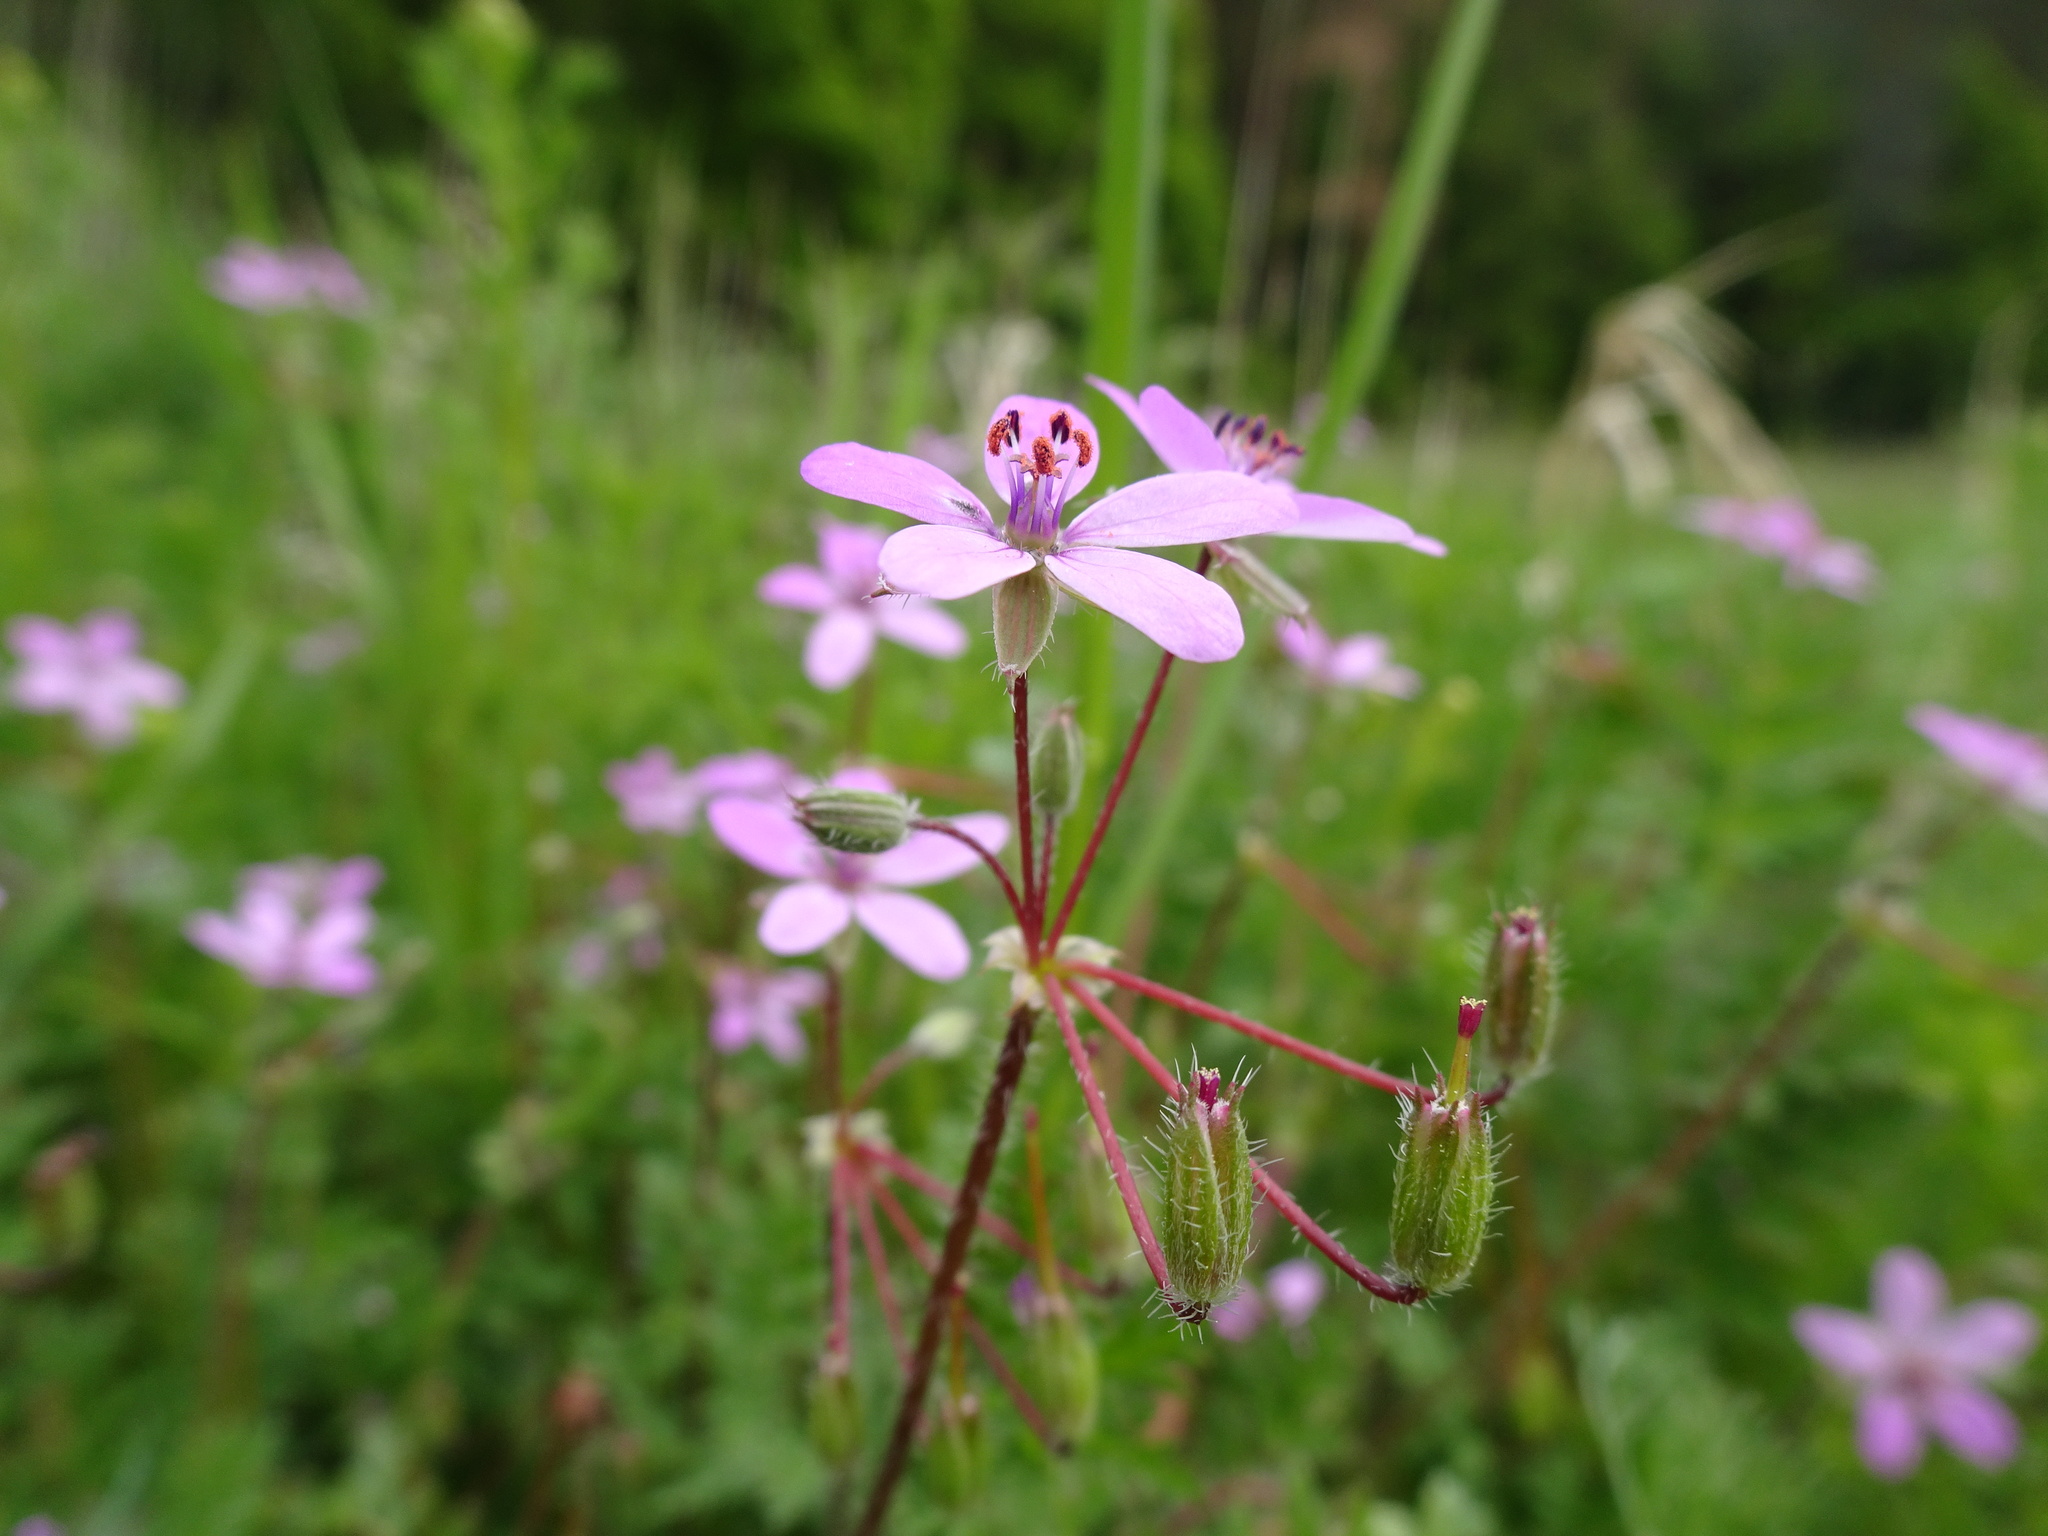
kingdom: Plantae
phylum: Tracheophyta
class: Magnoliopsida
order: Geraniales
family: Geraniaceae
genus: Erodium
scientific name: Erodium cicutarium
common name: Common stork's-bill
